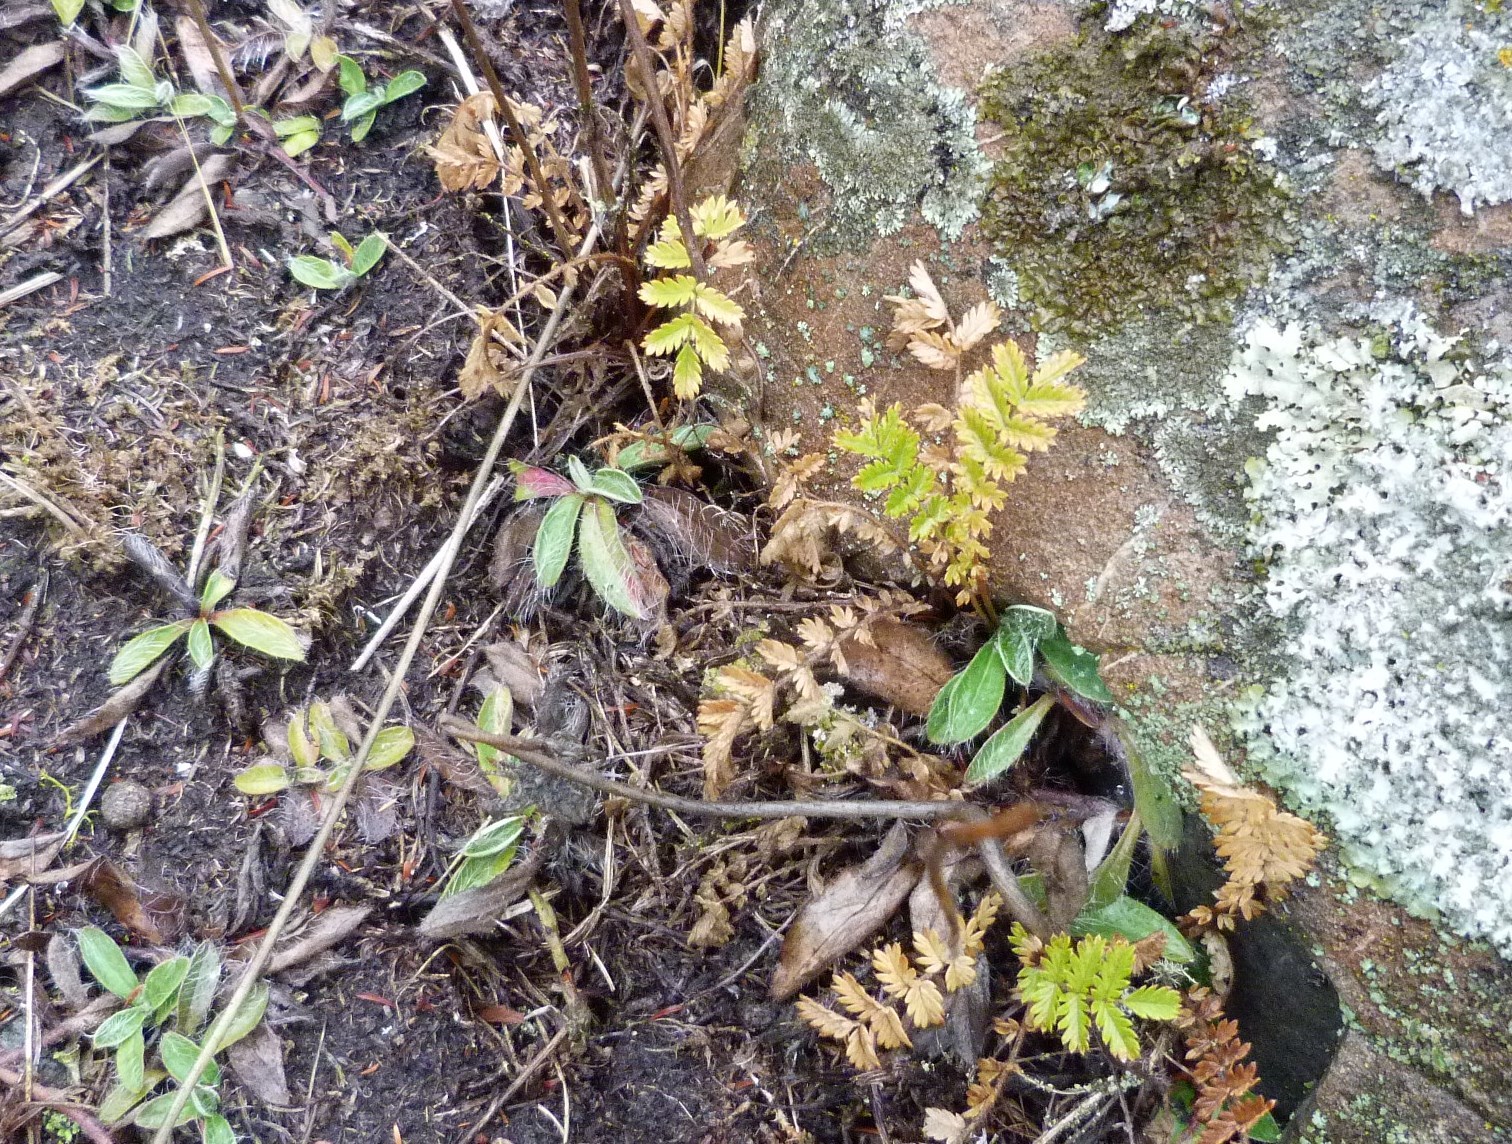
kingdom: Plantae
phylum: Tracheophyta
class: Magnoliopsida
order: Rosales
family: Rosaceae
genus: Acaena
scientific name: Acaena agnipila
